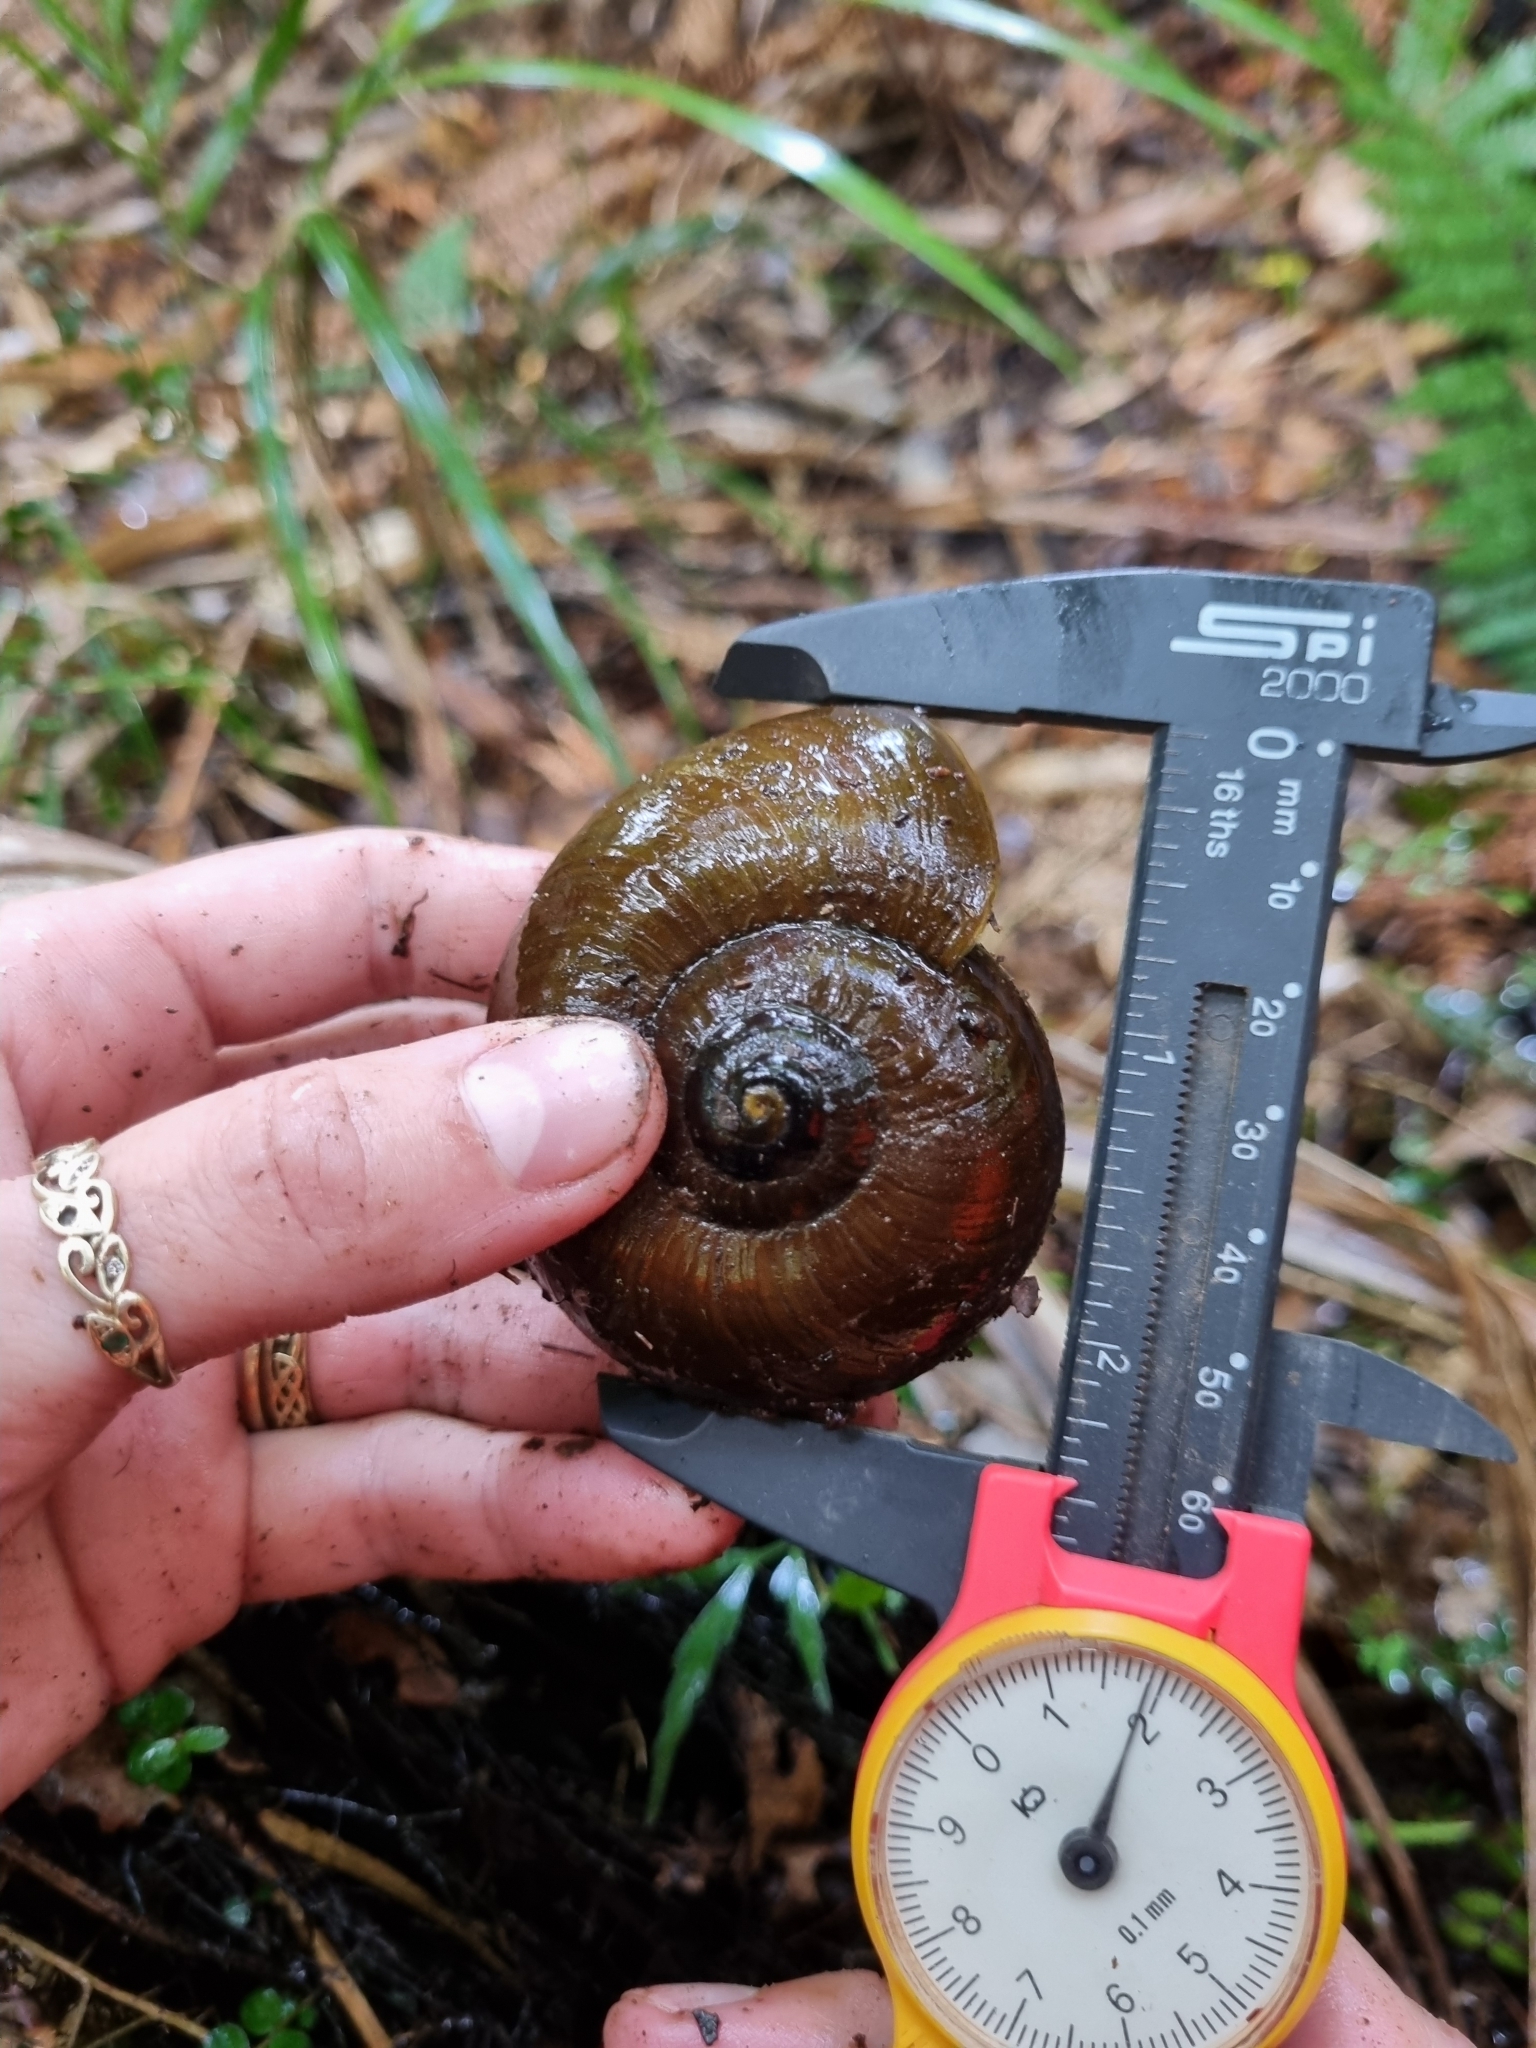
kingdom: Animalia
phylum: Mollusca
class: Gastropoda
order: Stylommatophora
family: Rhytididae
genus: Powelliphanta
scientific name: Powelliphanta superba
